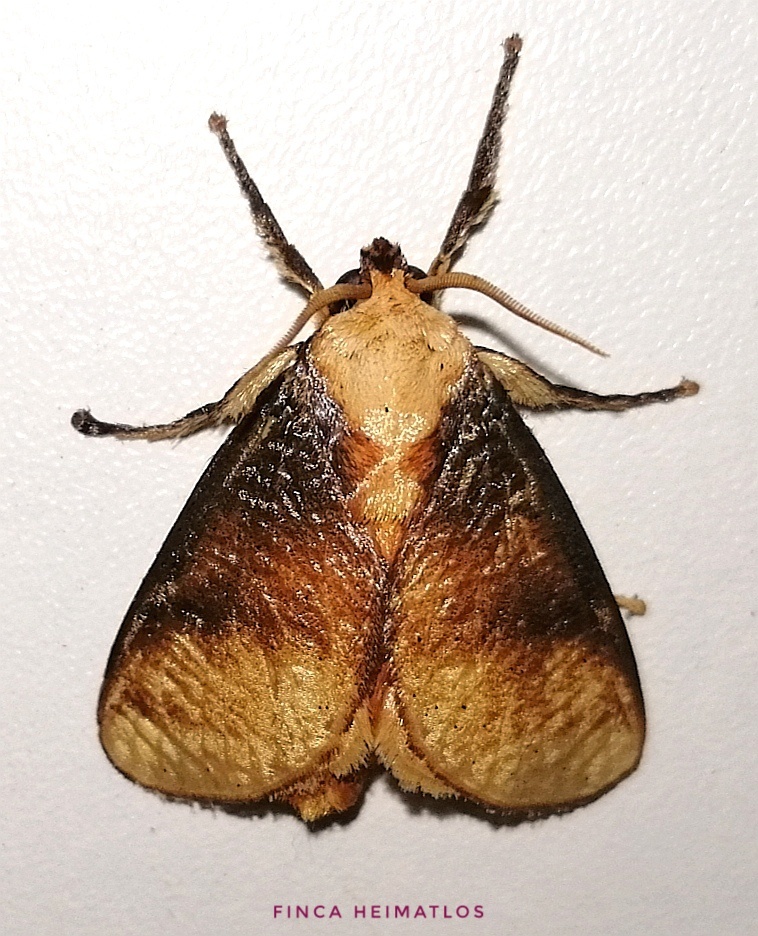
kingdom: Animalia
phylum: Arthropoda
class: Insecta
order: Lepidoptera
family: Limacodidae
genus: Ulamia
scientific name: Ulamia sericea
